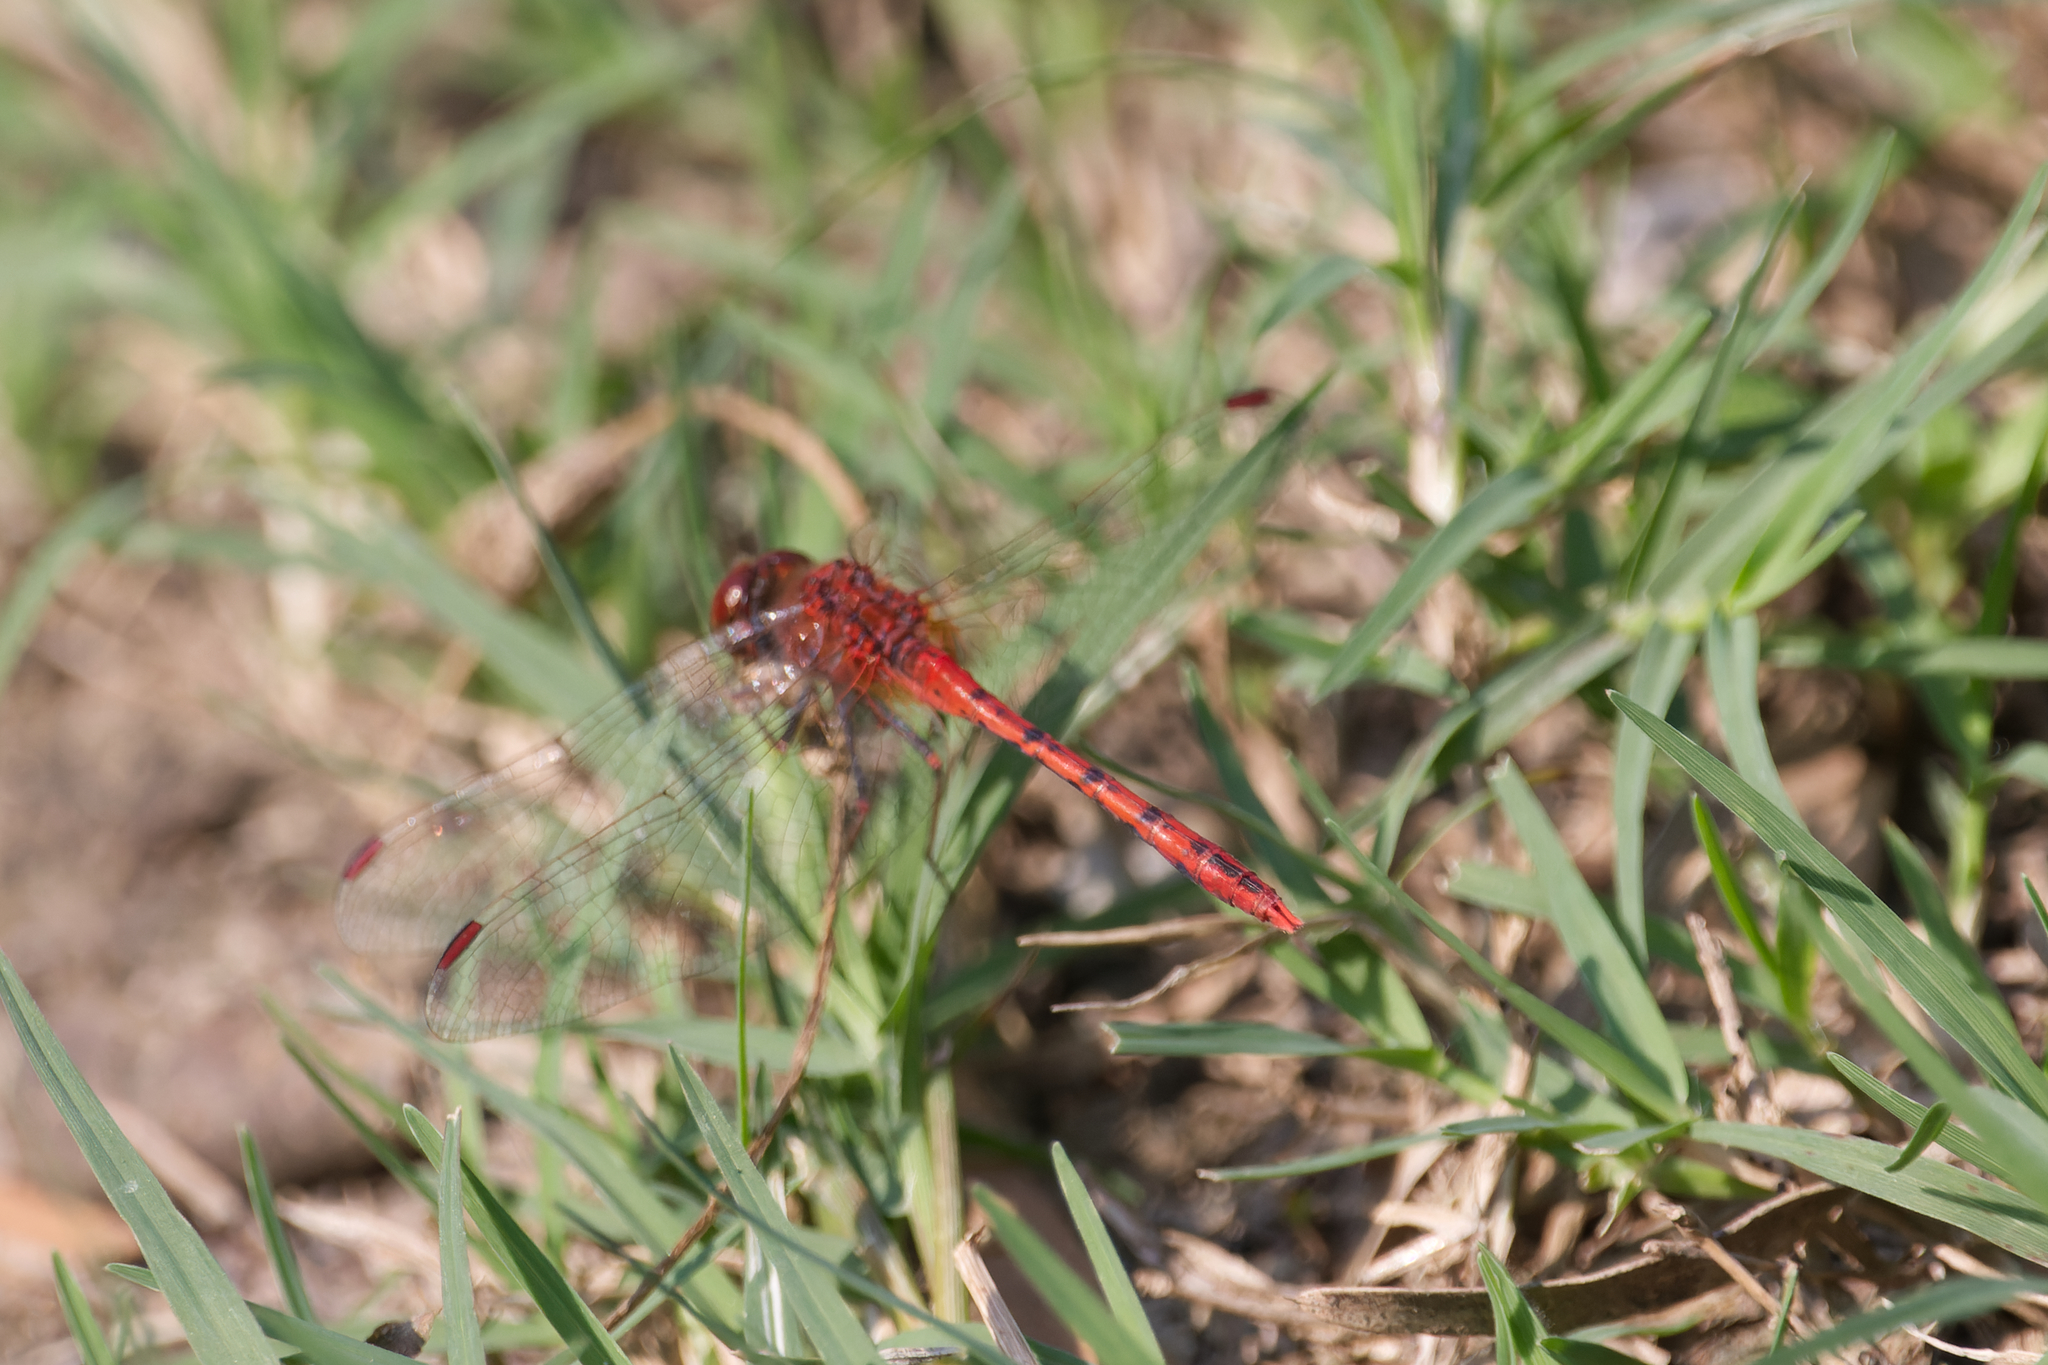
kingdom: Animalia
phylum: Arthropoda
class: Insecta
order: Odonata
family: Libellulidae
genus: Diplacodes
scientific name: Diplacodes bipunctata
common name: Red percher dragonfly
